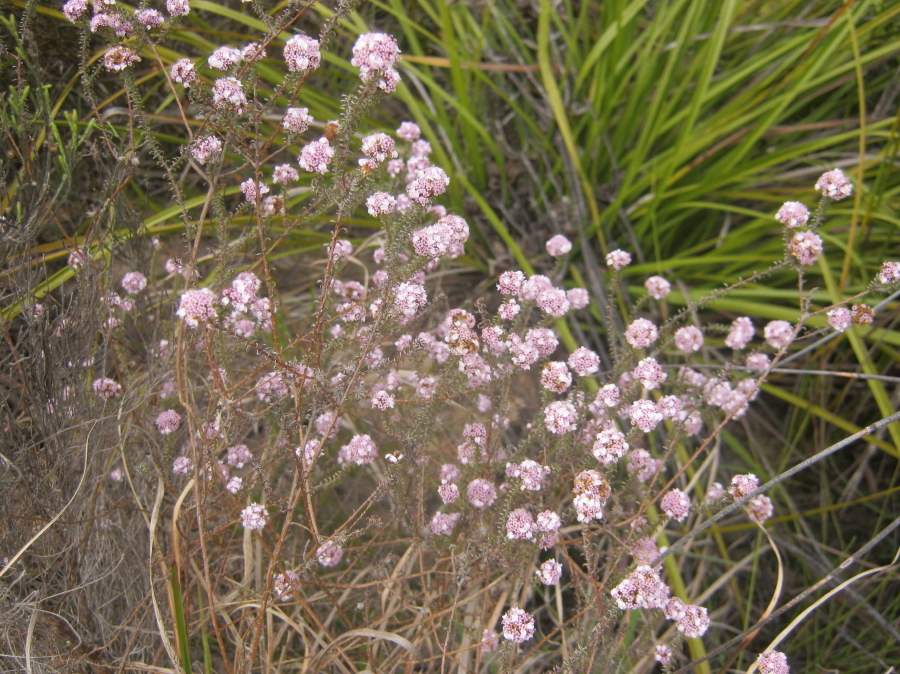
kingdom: Plantae
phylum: Tracheophyta
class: Magnoliopsida
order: Asterales
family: Asteraceae
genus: Disparago
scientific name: Disparago tortilis
